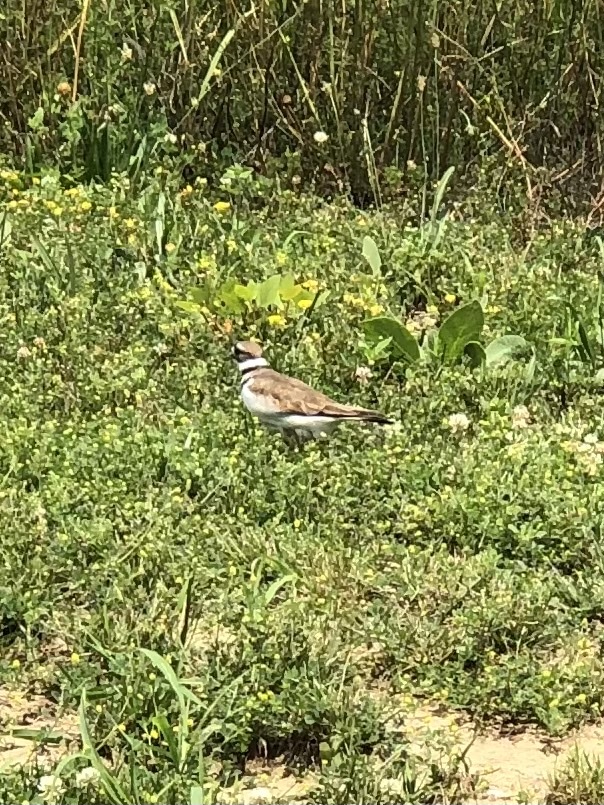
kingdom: Animalia
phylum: Chordata
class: Aves
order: Charadriiformes
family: Charadriidae
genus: Charadrius
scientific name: Charadrius vociferus
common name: Killdeer
